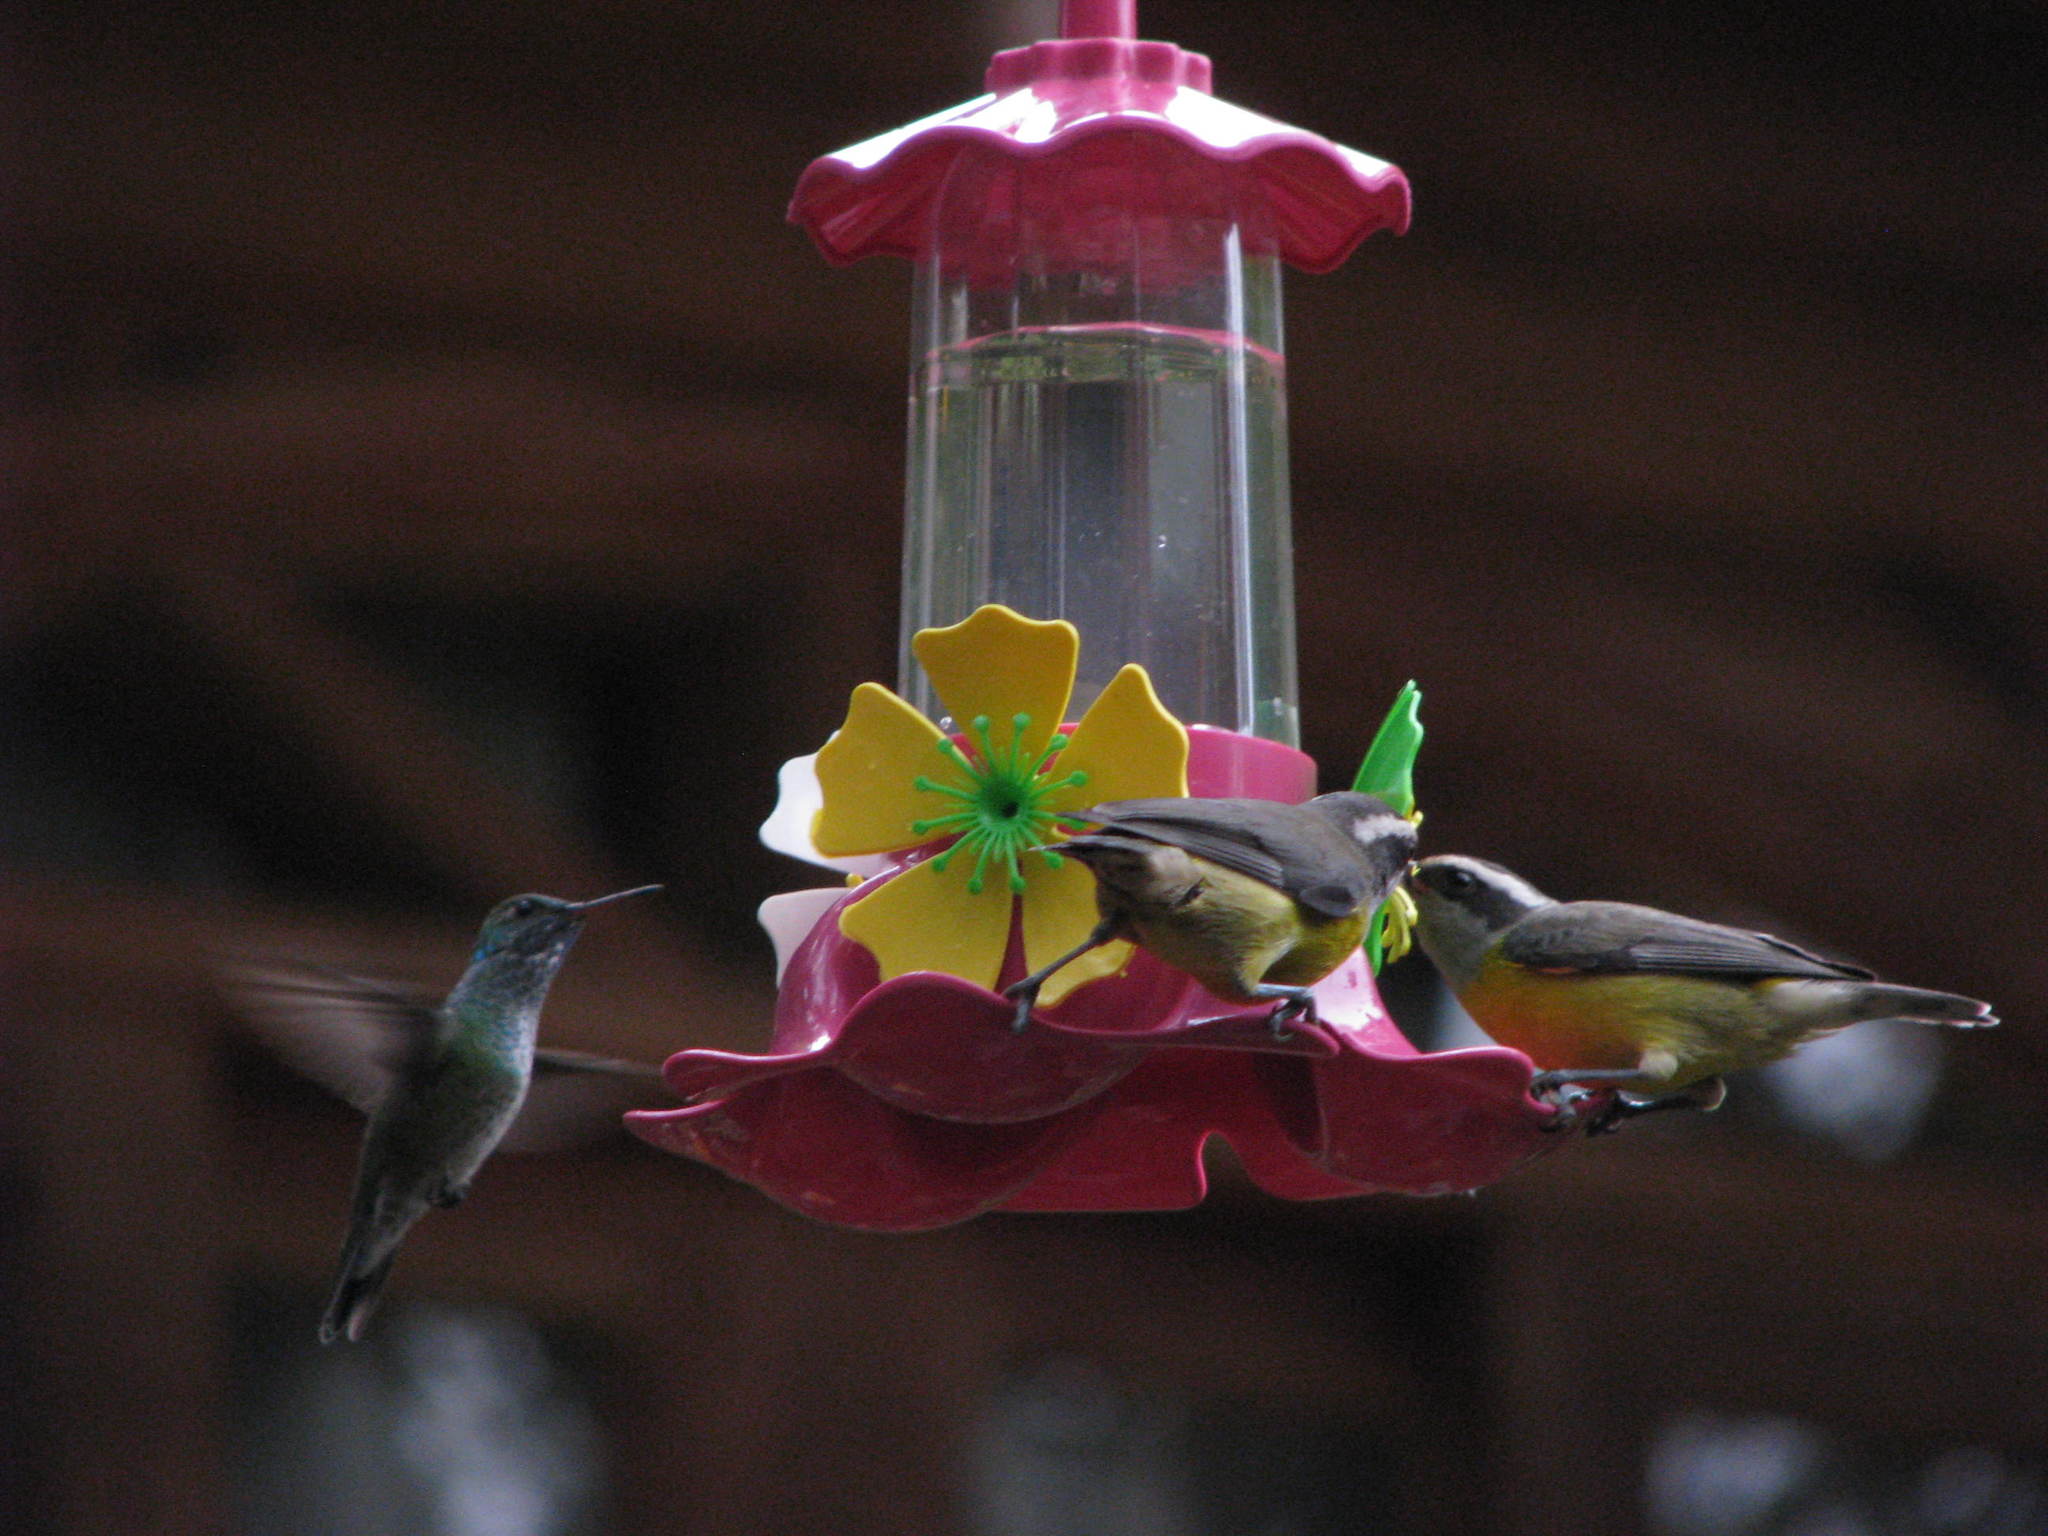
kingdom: Animalia
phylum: Chordata
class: Aves
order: Passeriformes
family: Thraupidae
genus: Coereba
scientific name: Coereba flaveola
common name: Bananaquit
